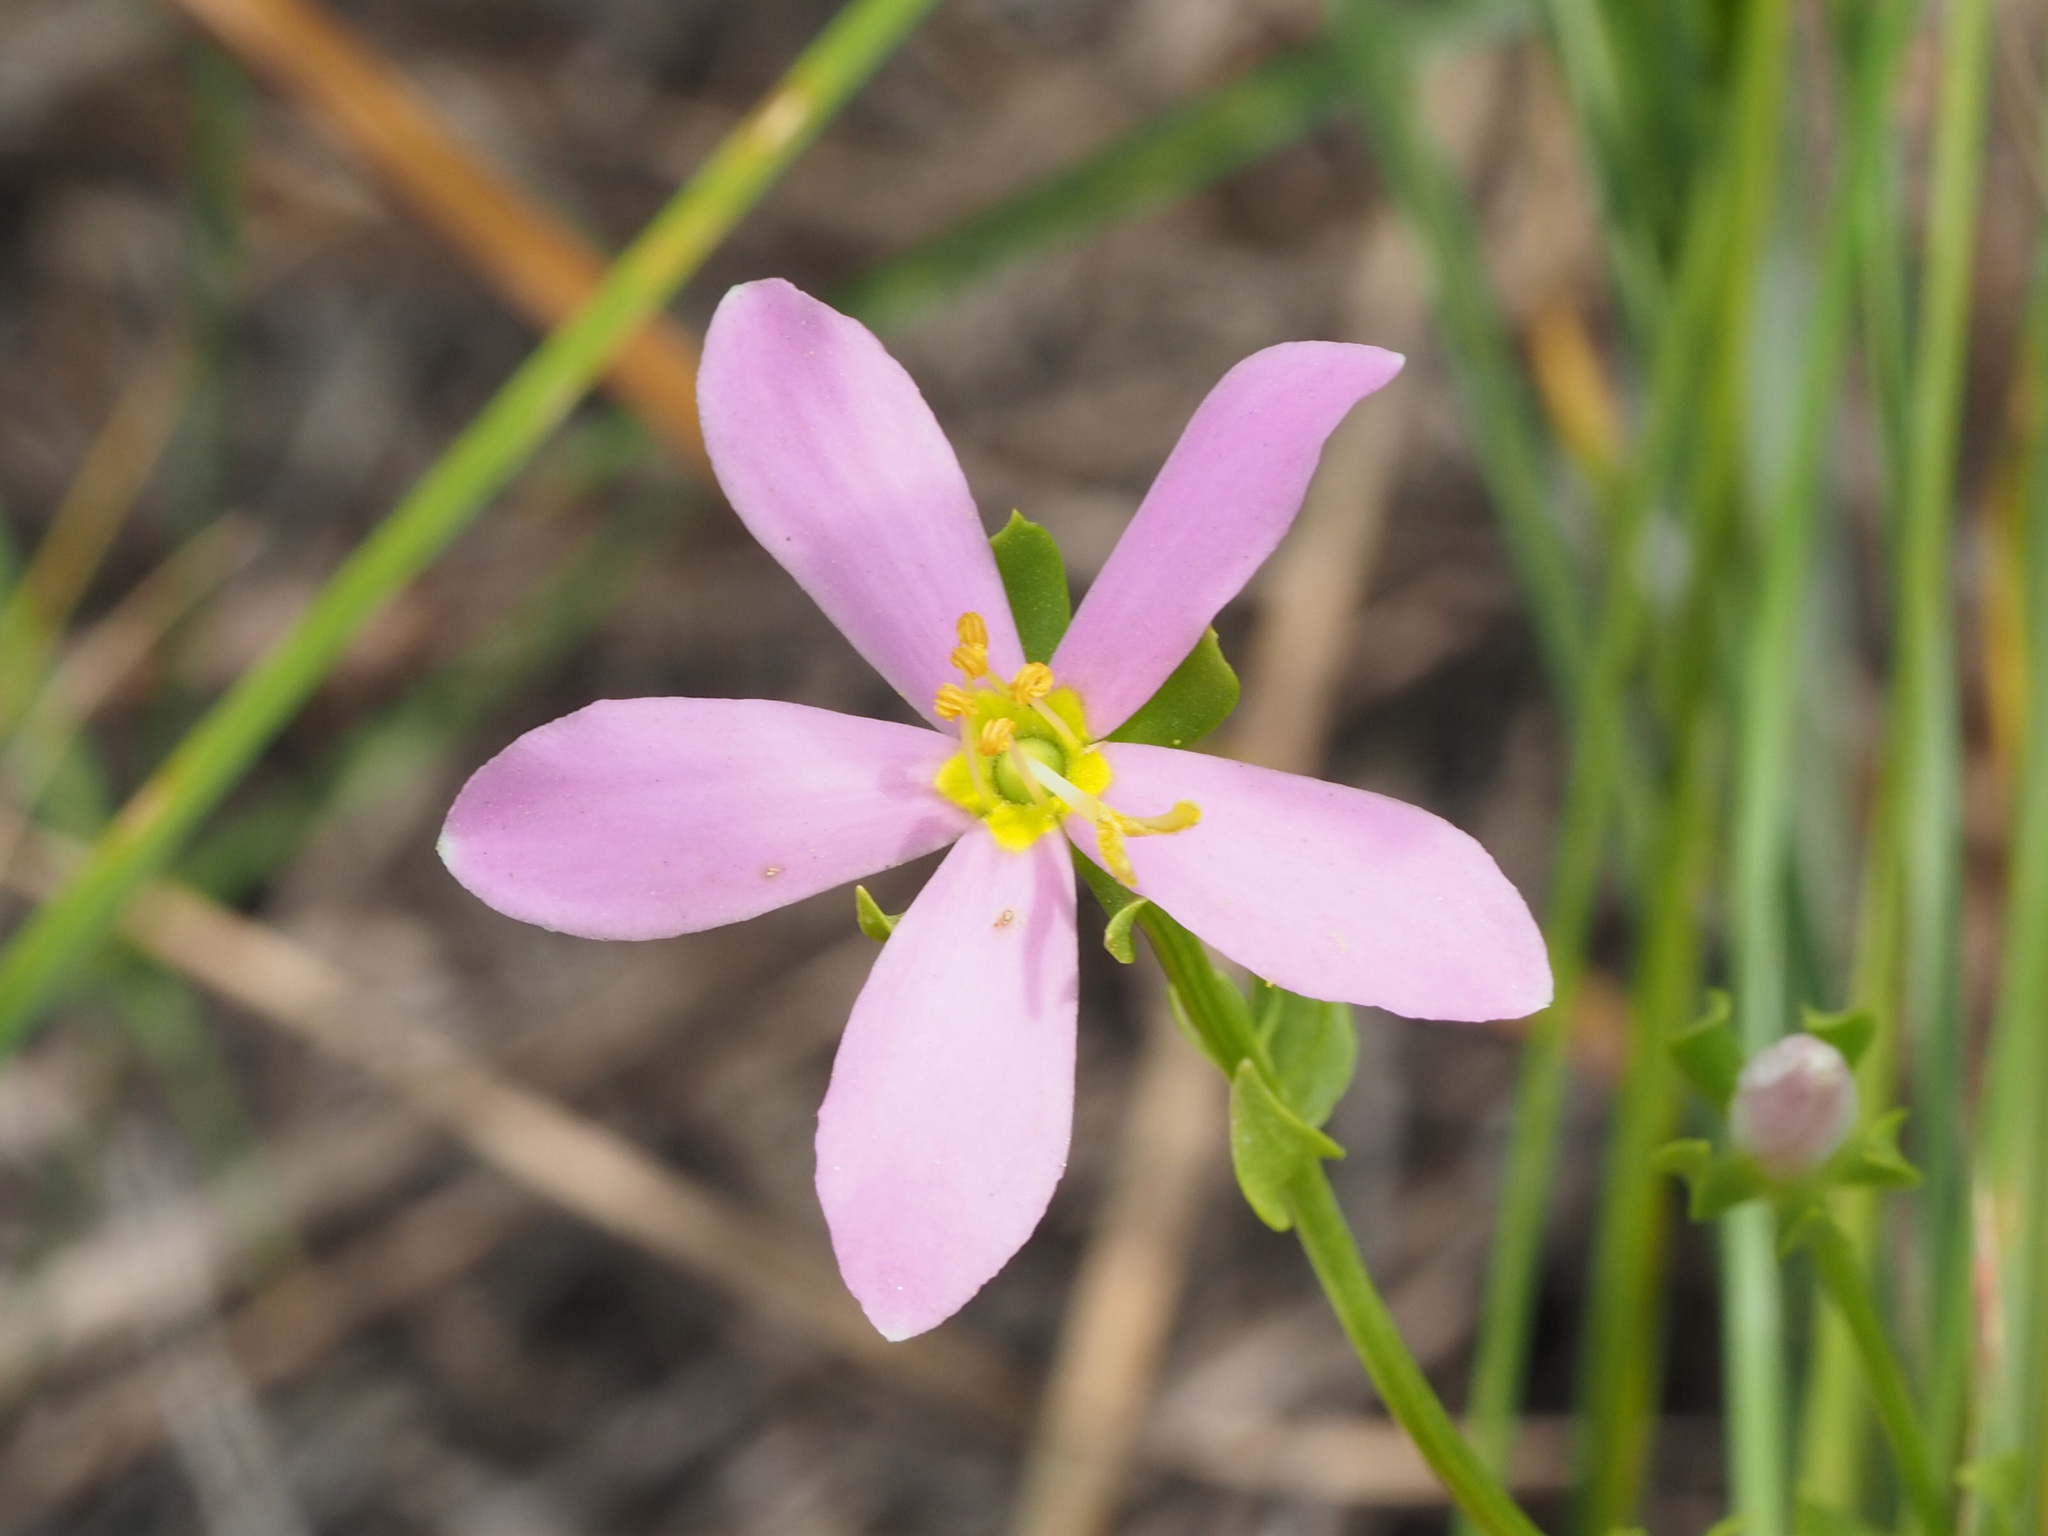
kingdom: Plantae
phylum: Tracheophyta
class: Magnoliopsida
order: Gentianales
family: Gentianaceae
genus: Sabatia
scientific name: Sabatia angularis
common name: Rose-pink
